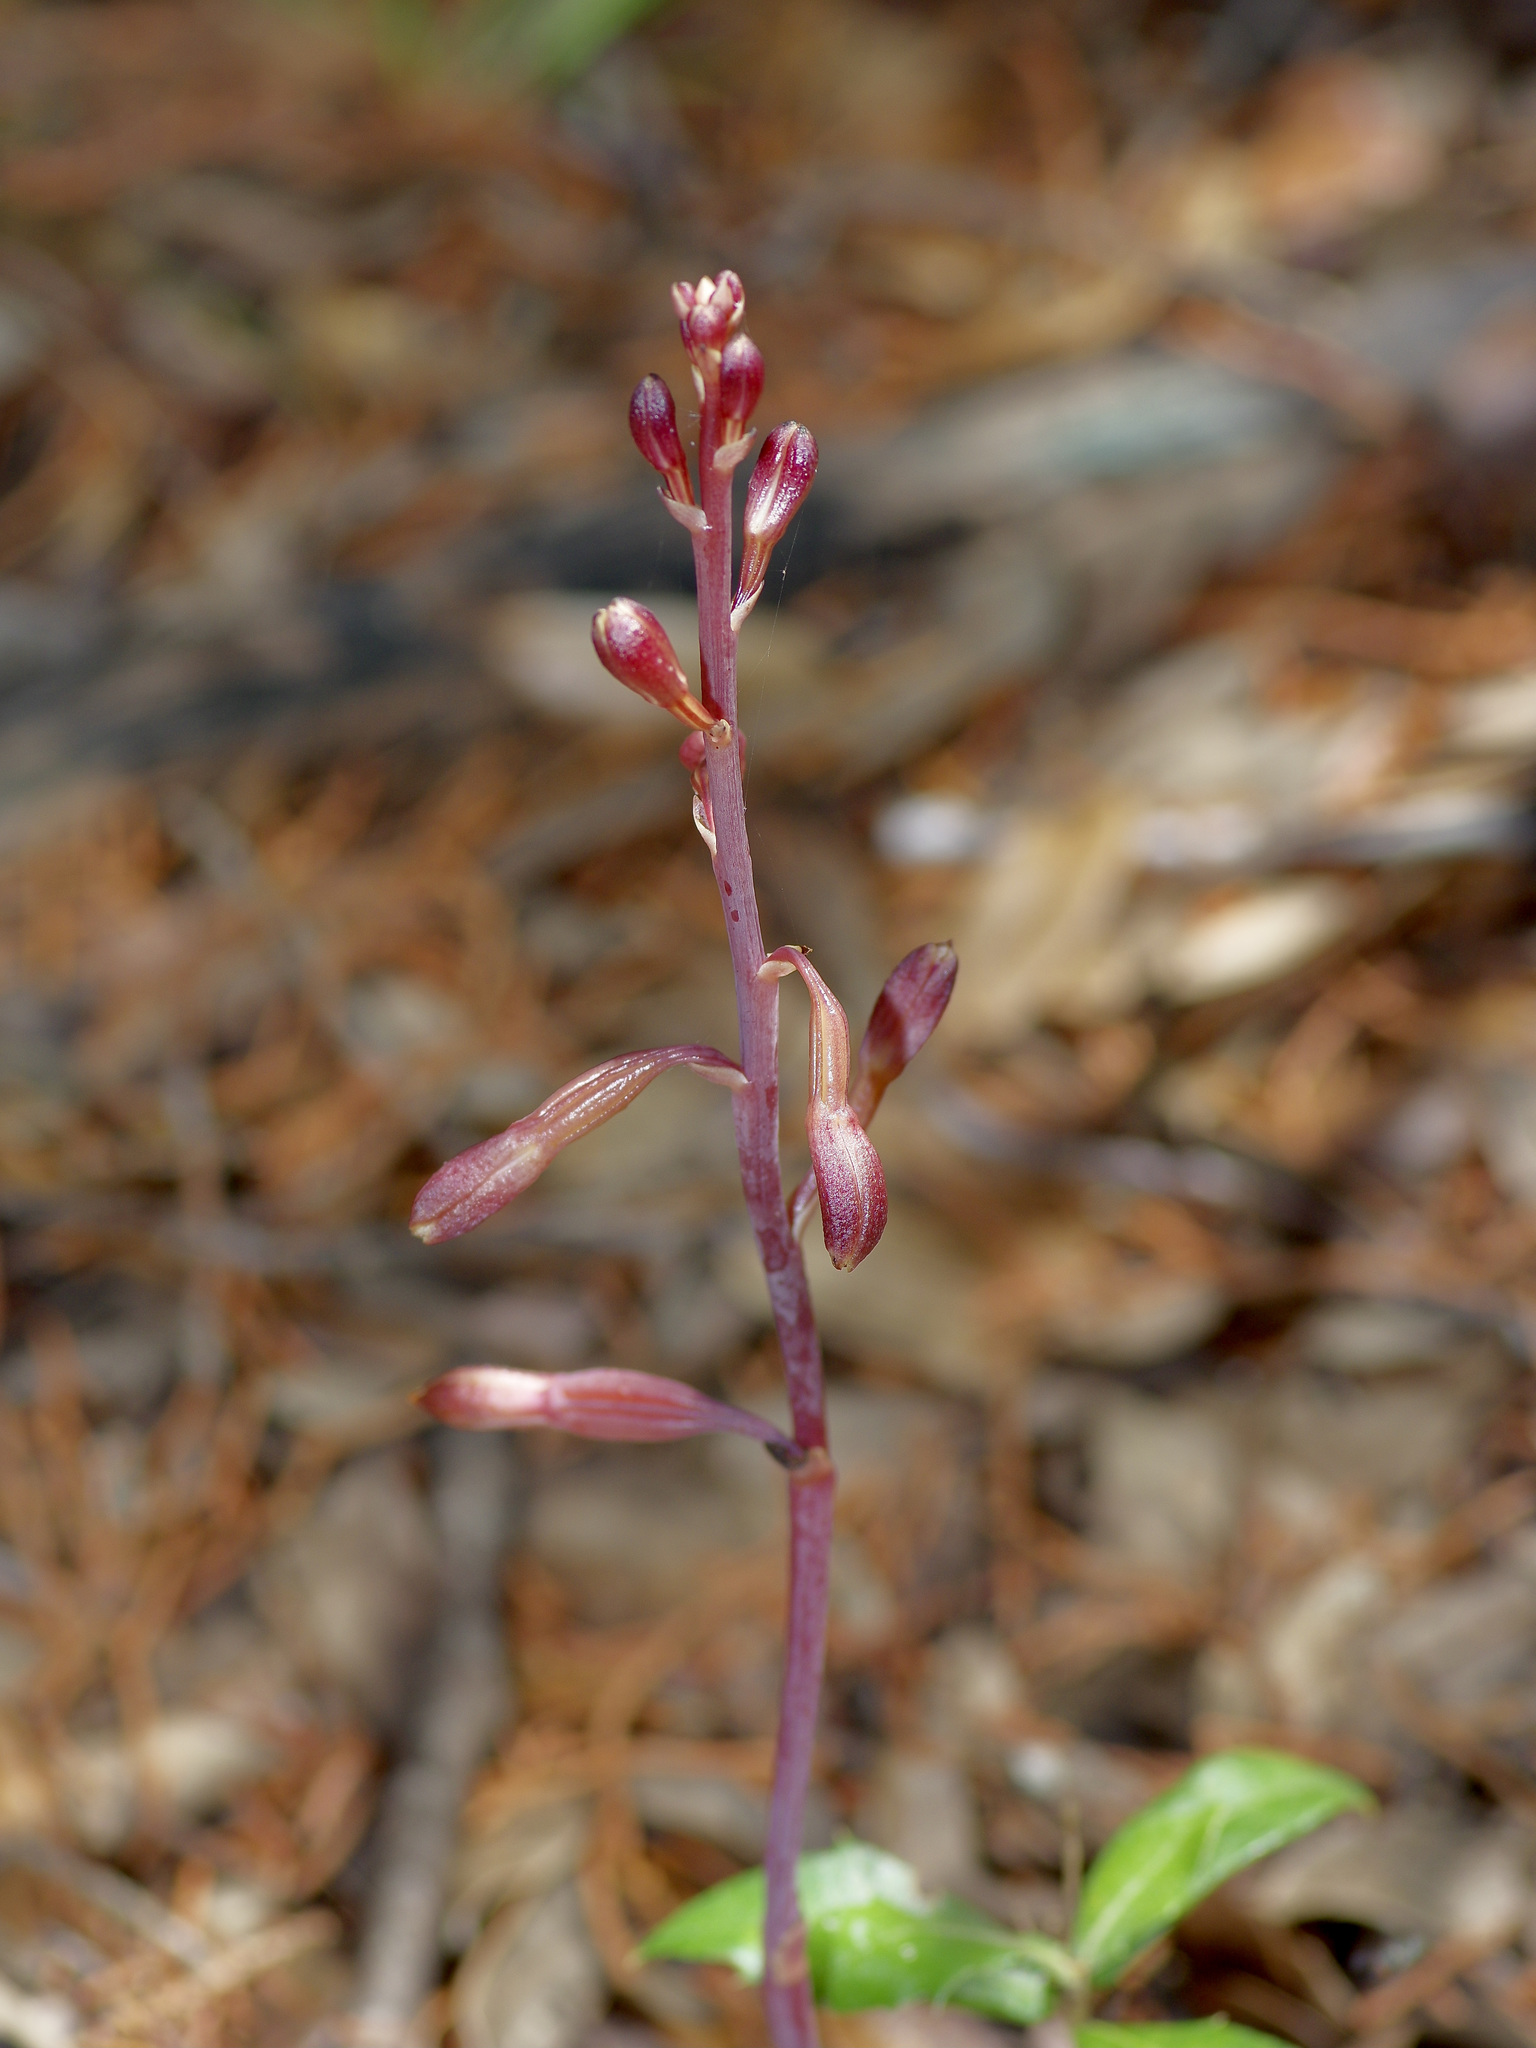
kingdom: Plantae
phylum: Tracheophyta
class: Liliopsida
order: Asparagales
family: Orchidaceae
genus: Bletia
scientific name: Bletia nitida
